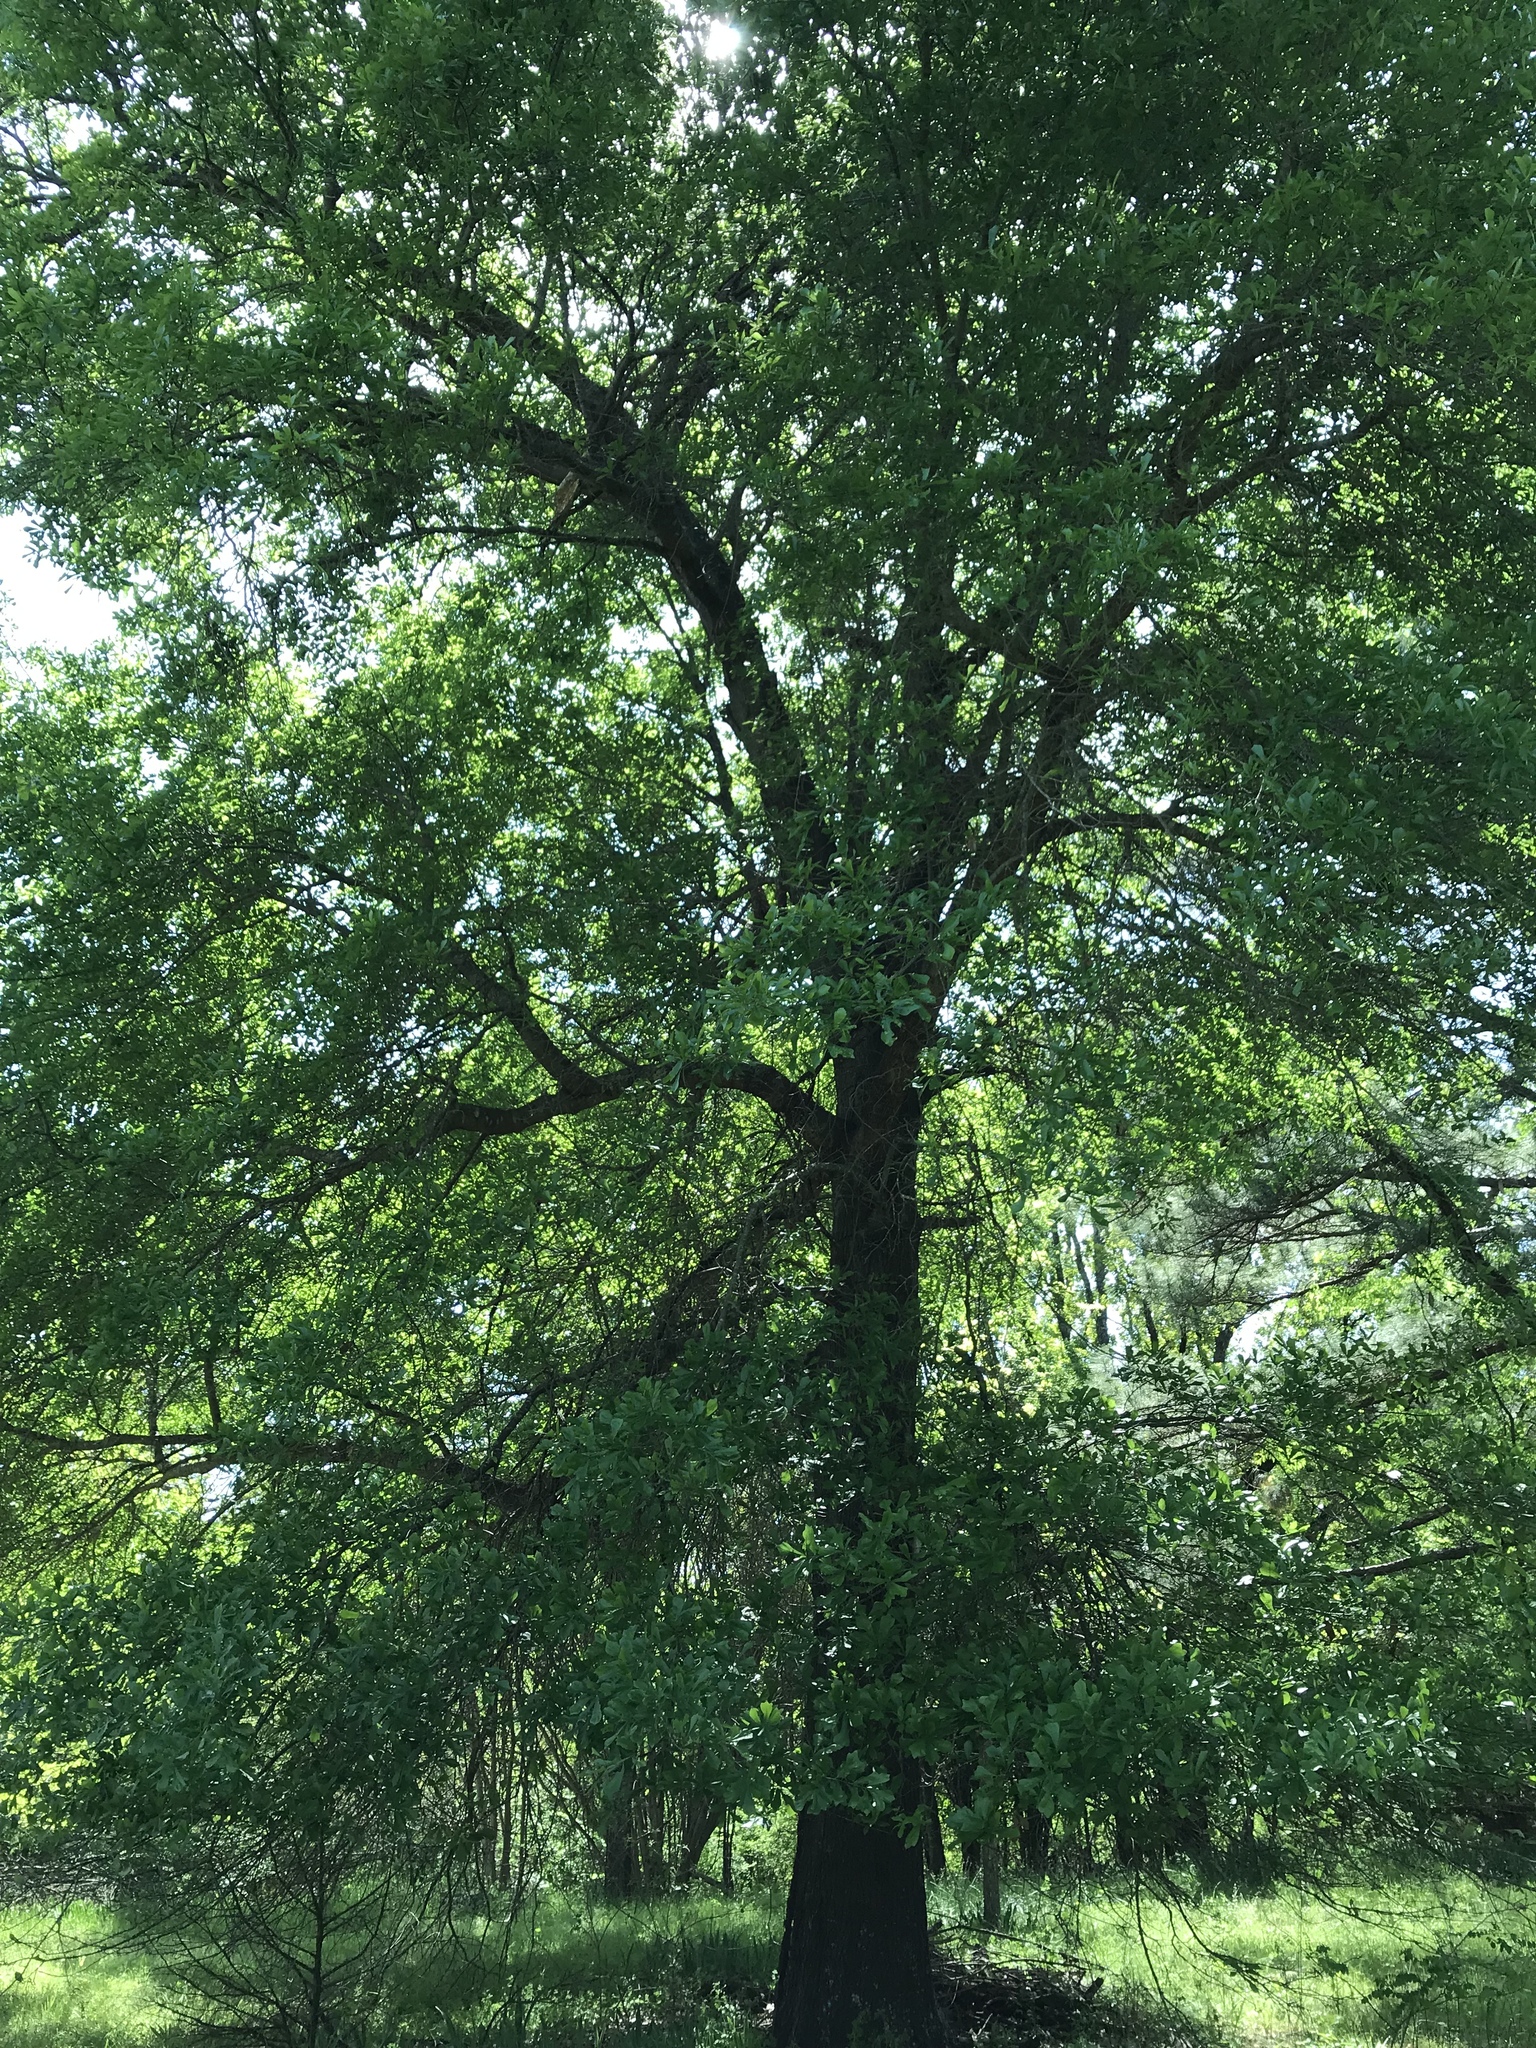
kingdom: Plantae
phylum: Tracheophyta
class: Magnoliopsida
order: Fagales
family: Fagaceae
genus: Quercus
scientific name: Quercus nigra
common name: Water oak
